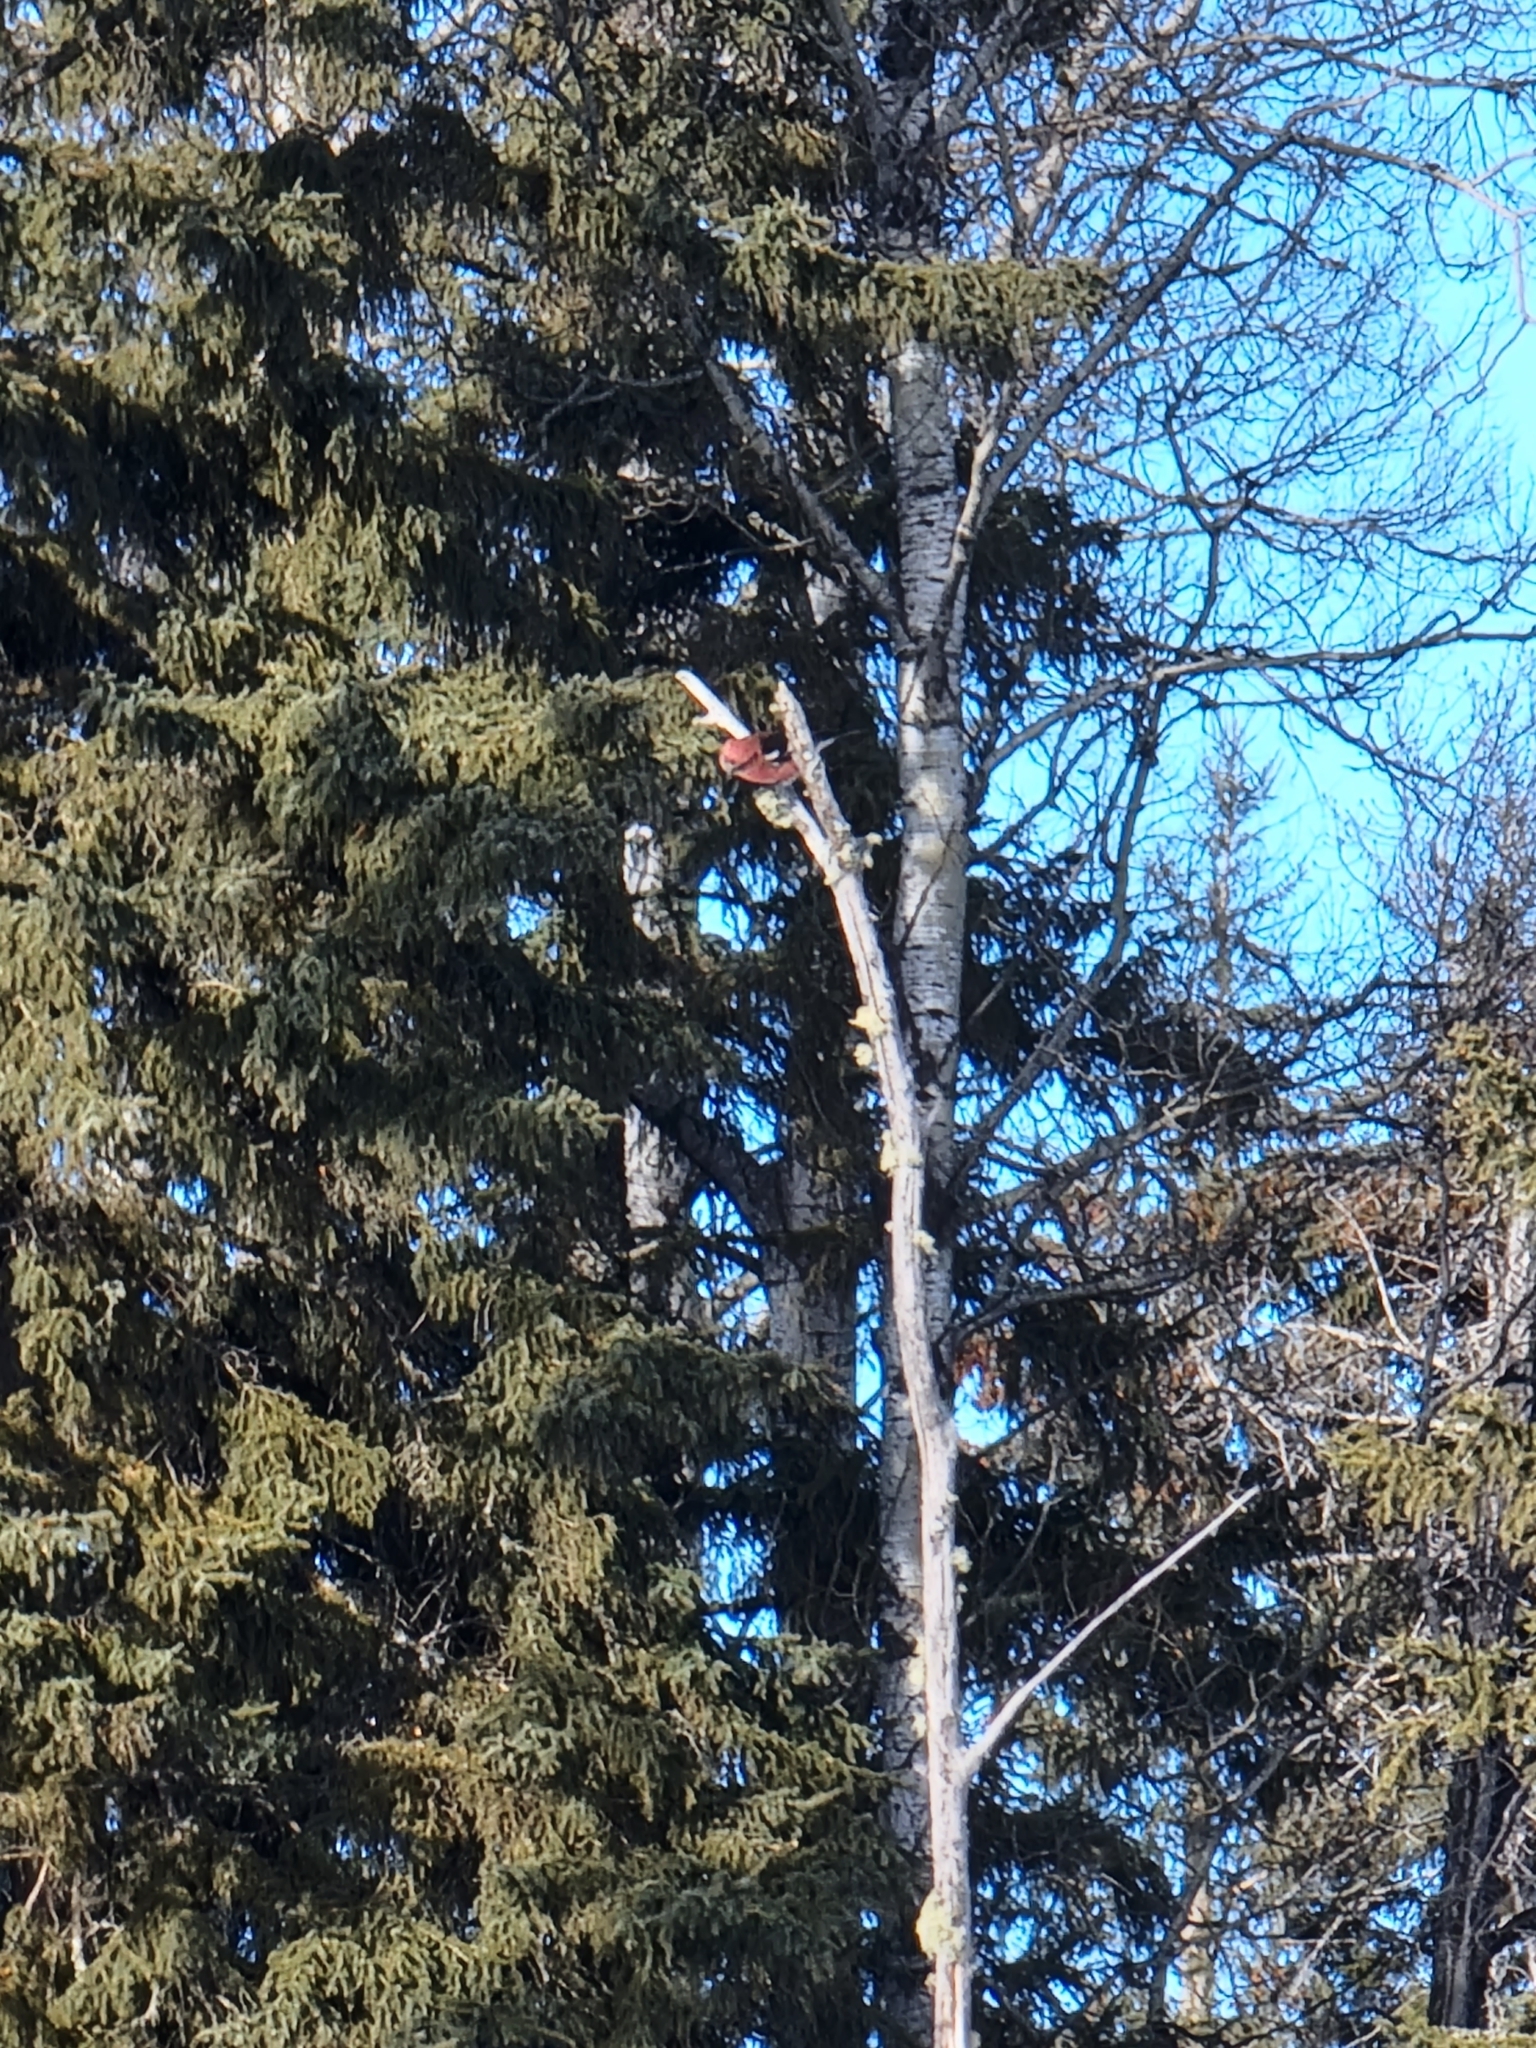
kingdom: Animalia
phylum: Chordata
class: Aves
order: Passeriformes
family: Fringillidae
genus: Loxia
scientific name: Loxia leucoptera
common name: Two-barred crossbill
